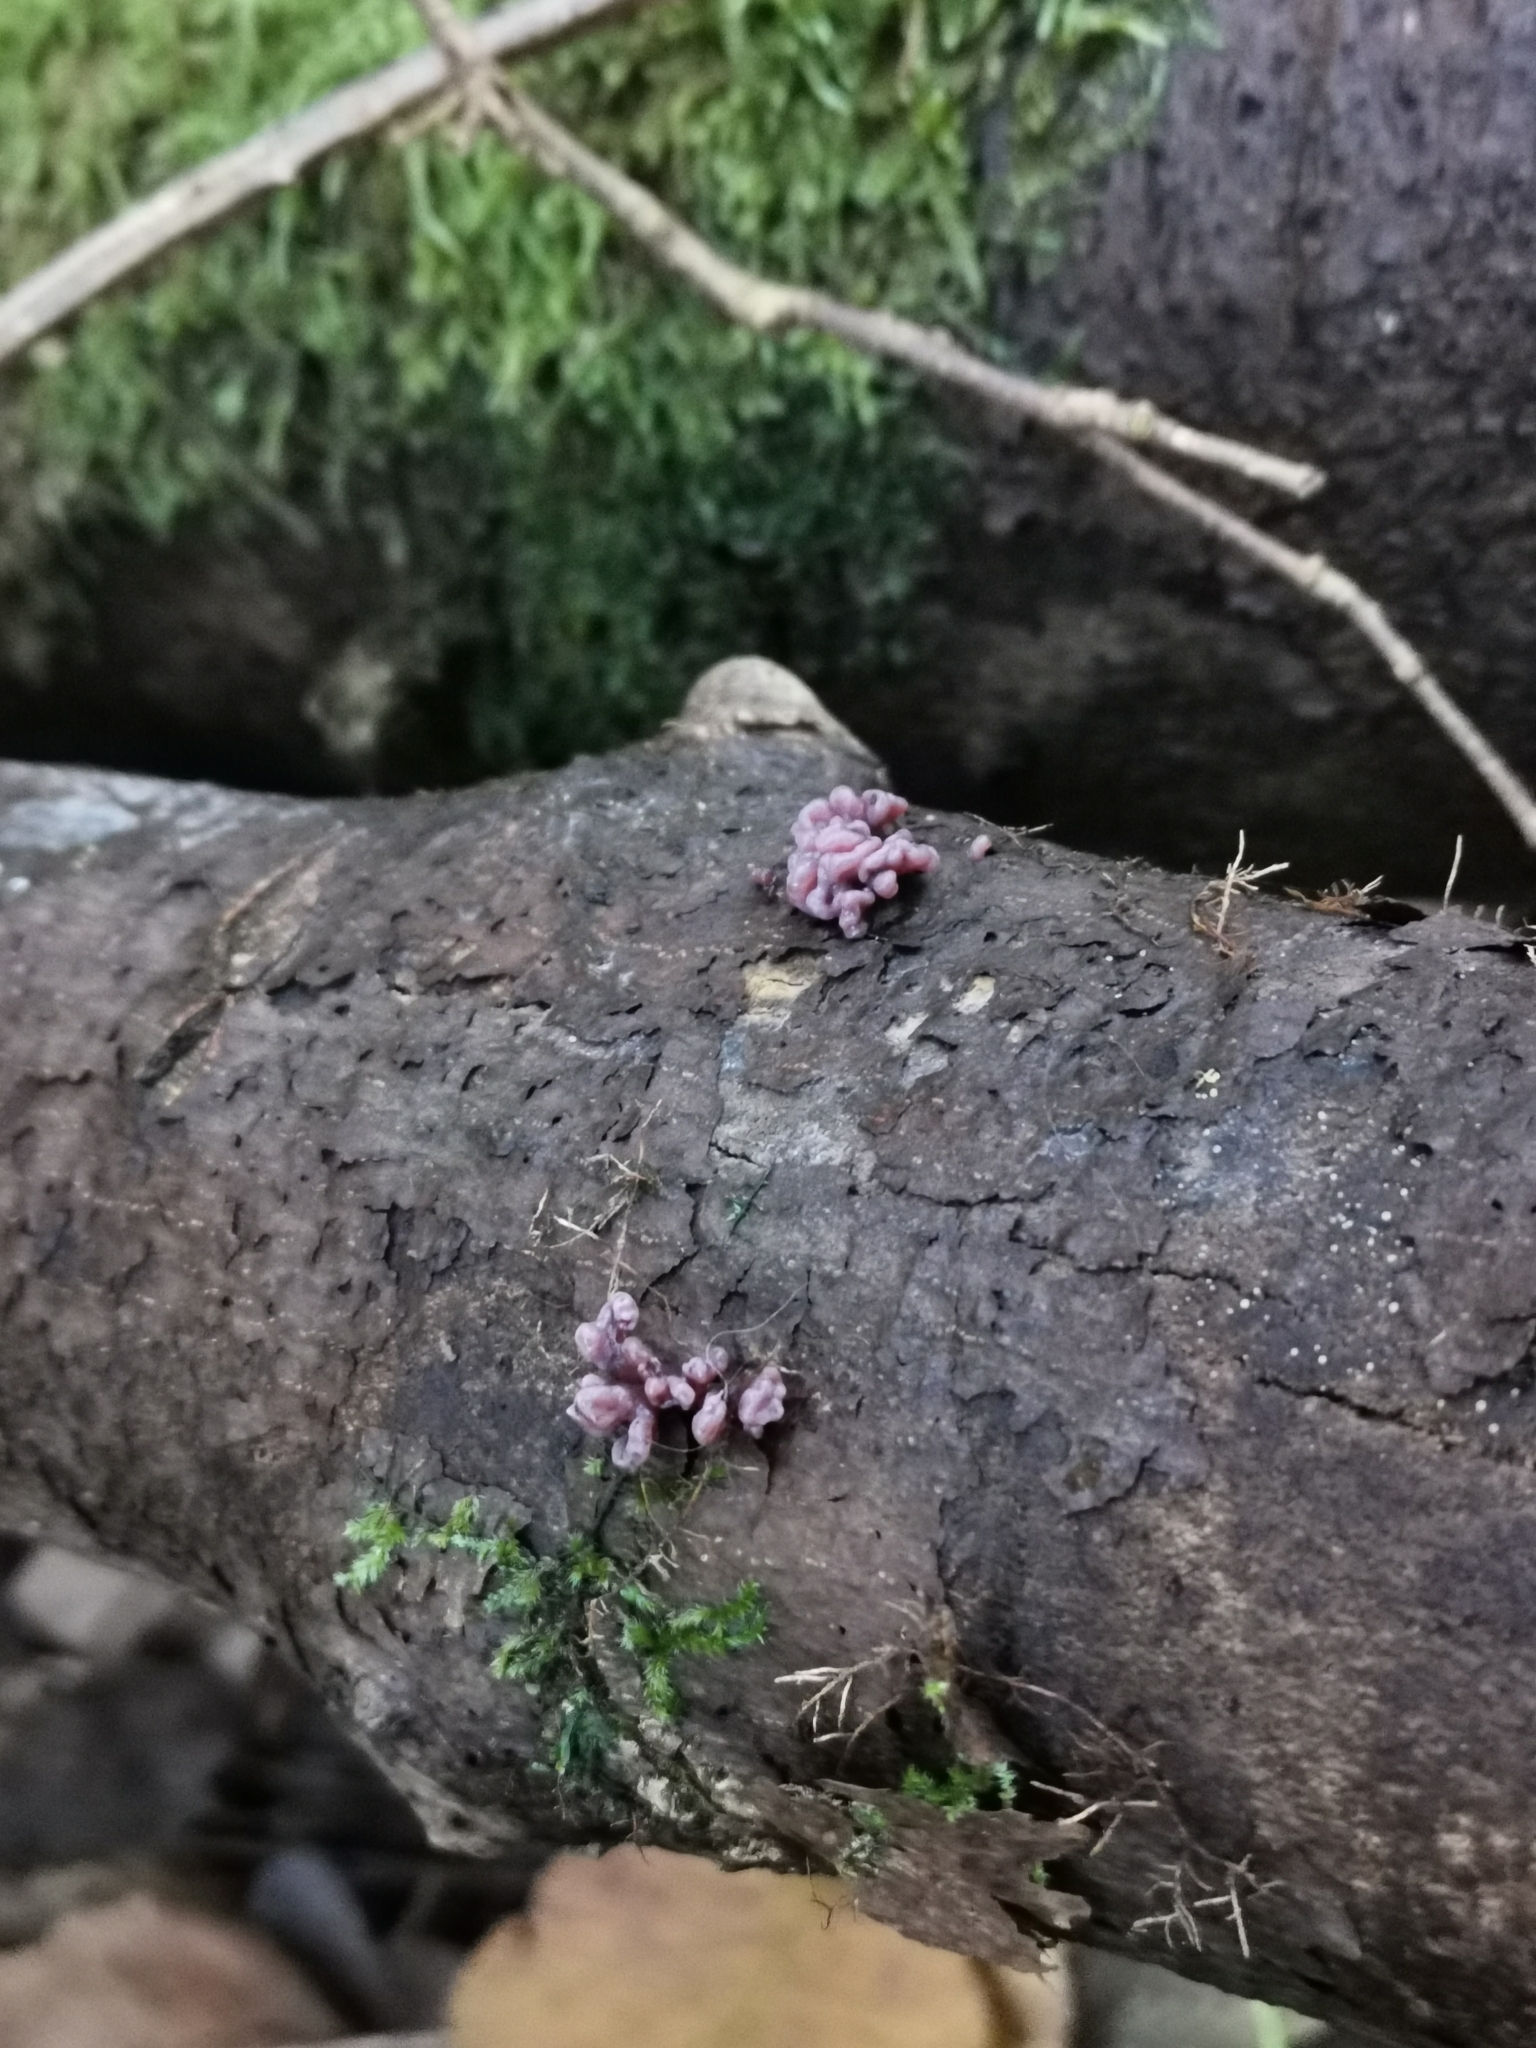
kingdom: Fungi
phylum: Ascomycota
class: Leotiomycetes
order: Helotiales
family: Gelatinodiscaceae
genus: Ascocoryne
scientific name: Ascocoryne sarcoides
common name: Purple jellydisc
